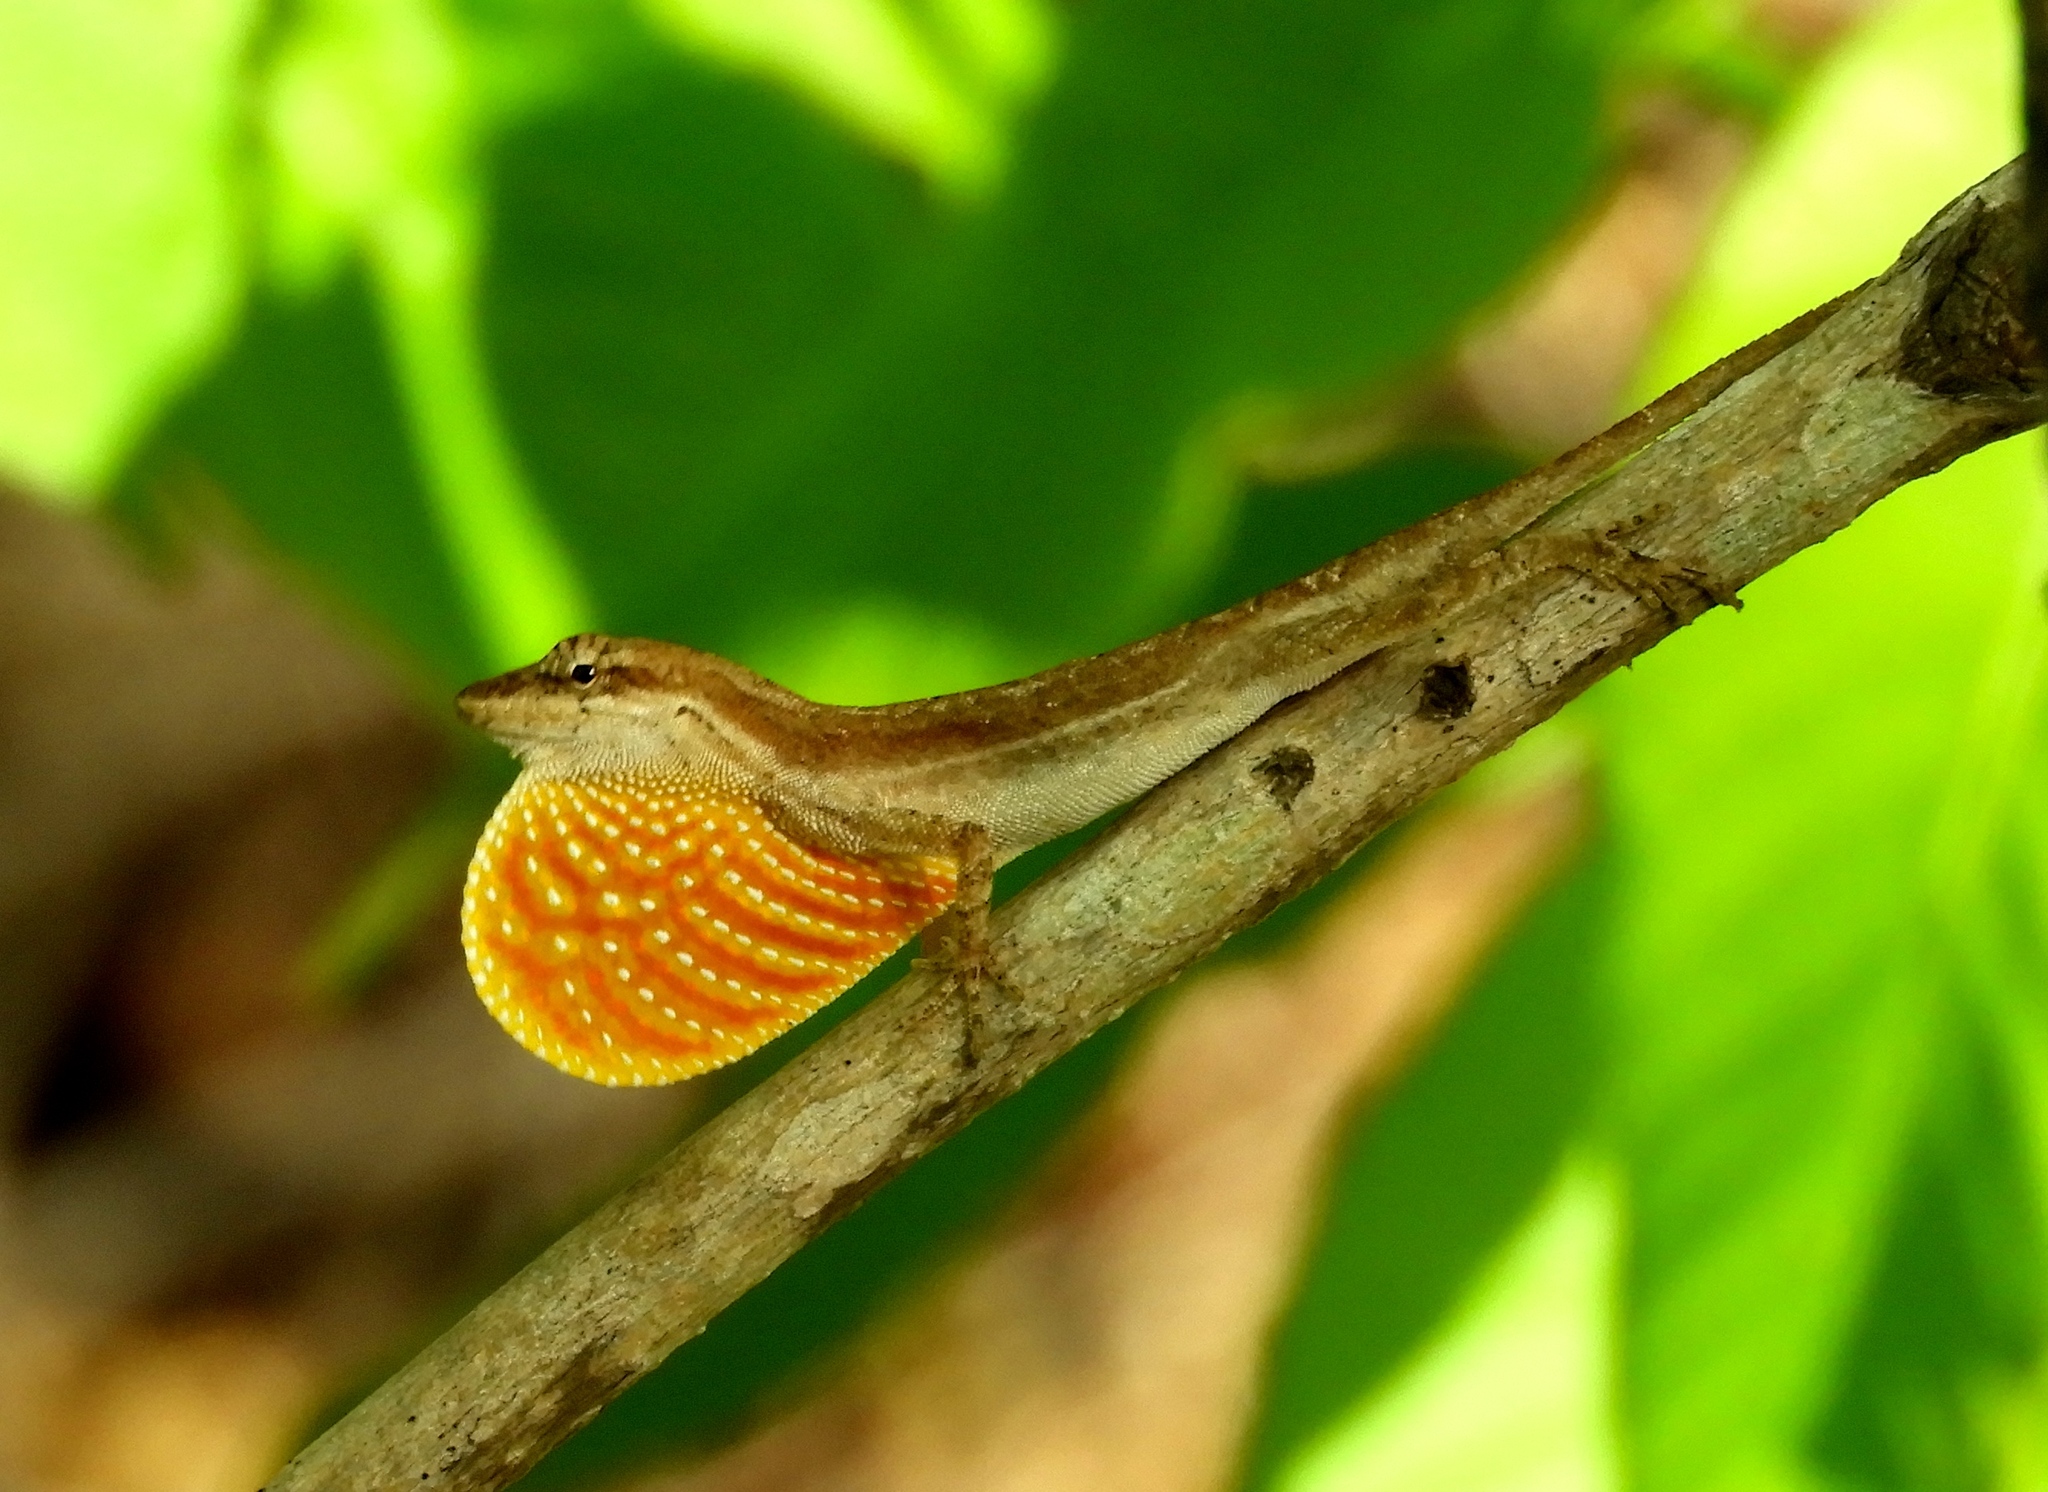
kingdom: Animalia
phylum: Chordata
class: Squamata
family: Dactyloidae
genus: Anolis
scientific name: Anolis nebulosus
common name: Clouded anole
